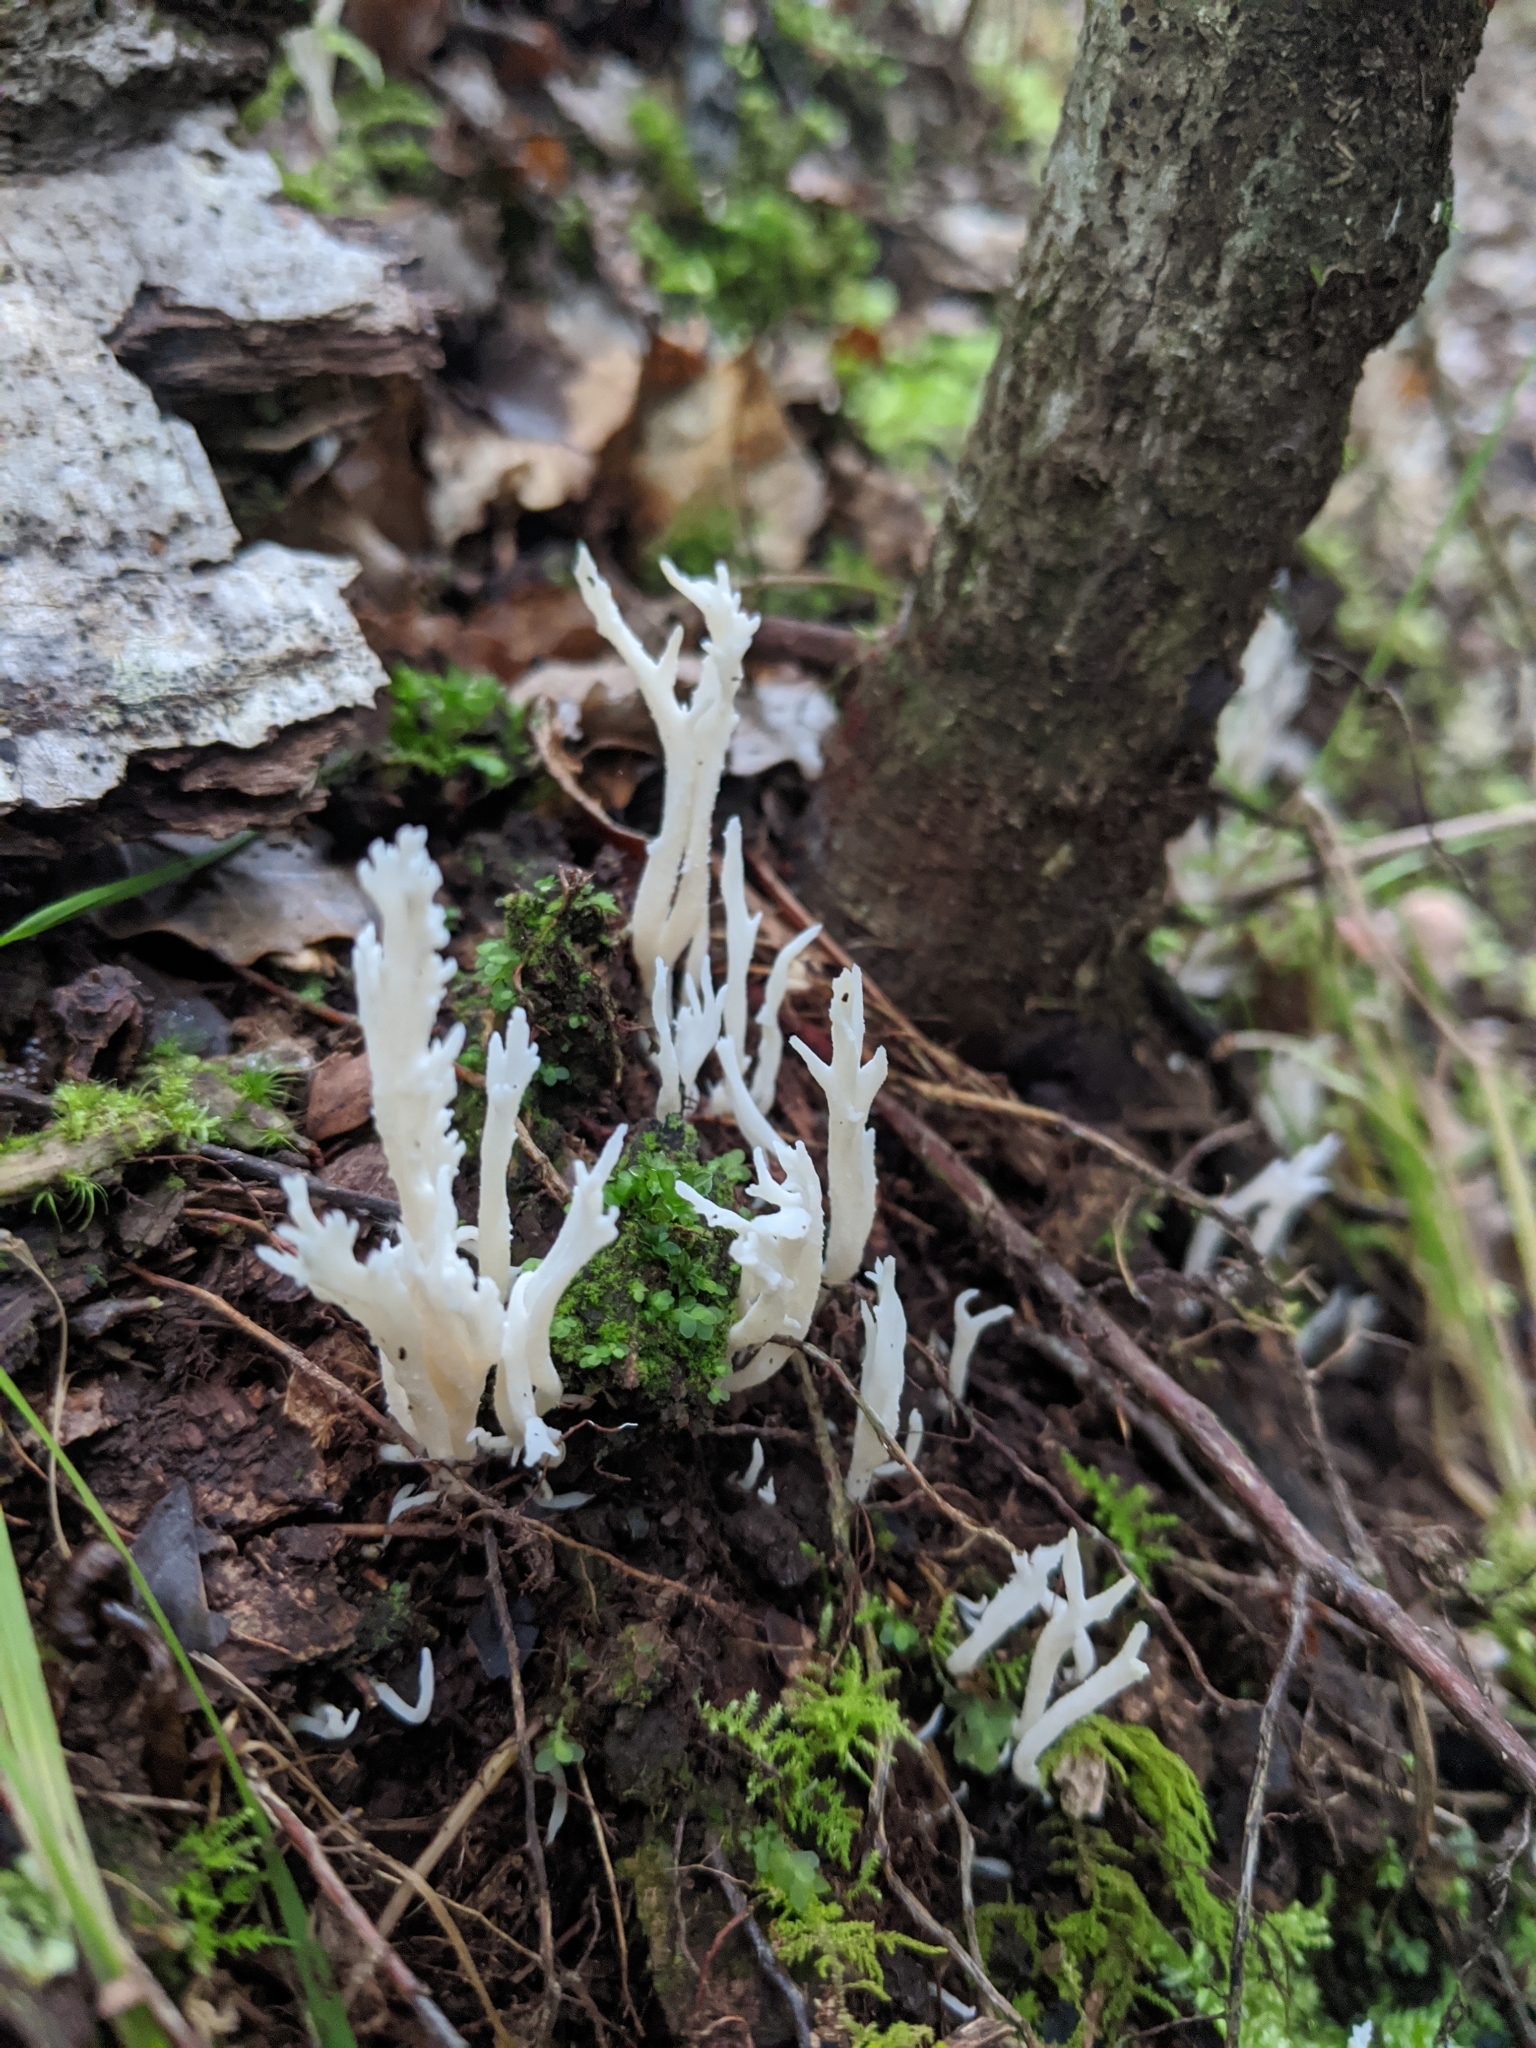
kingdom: Fungi
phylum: Basidiomycota
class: Agaricomycetes
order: Cantharellales
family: Hydnaceae
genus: Clavulina
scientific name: Clavulina
